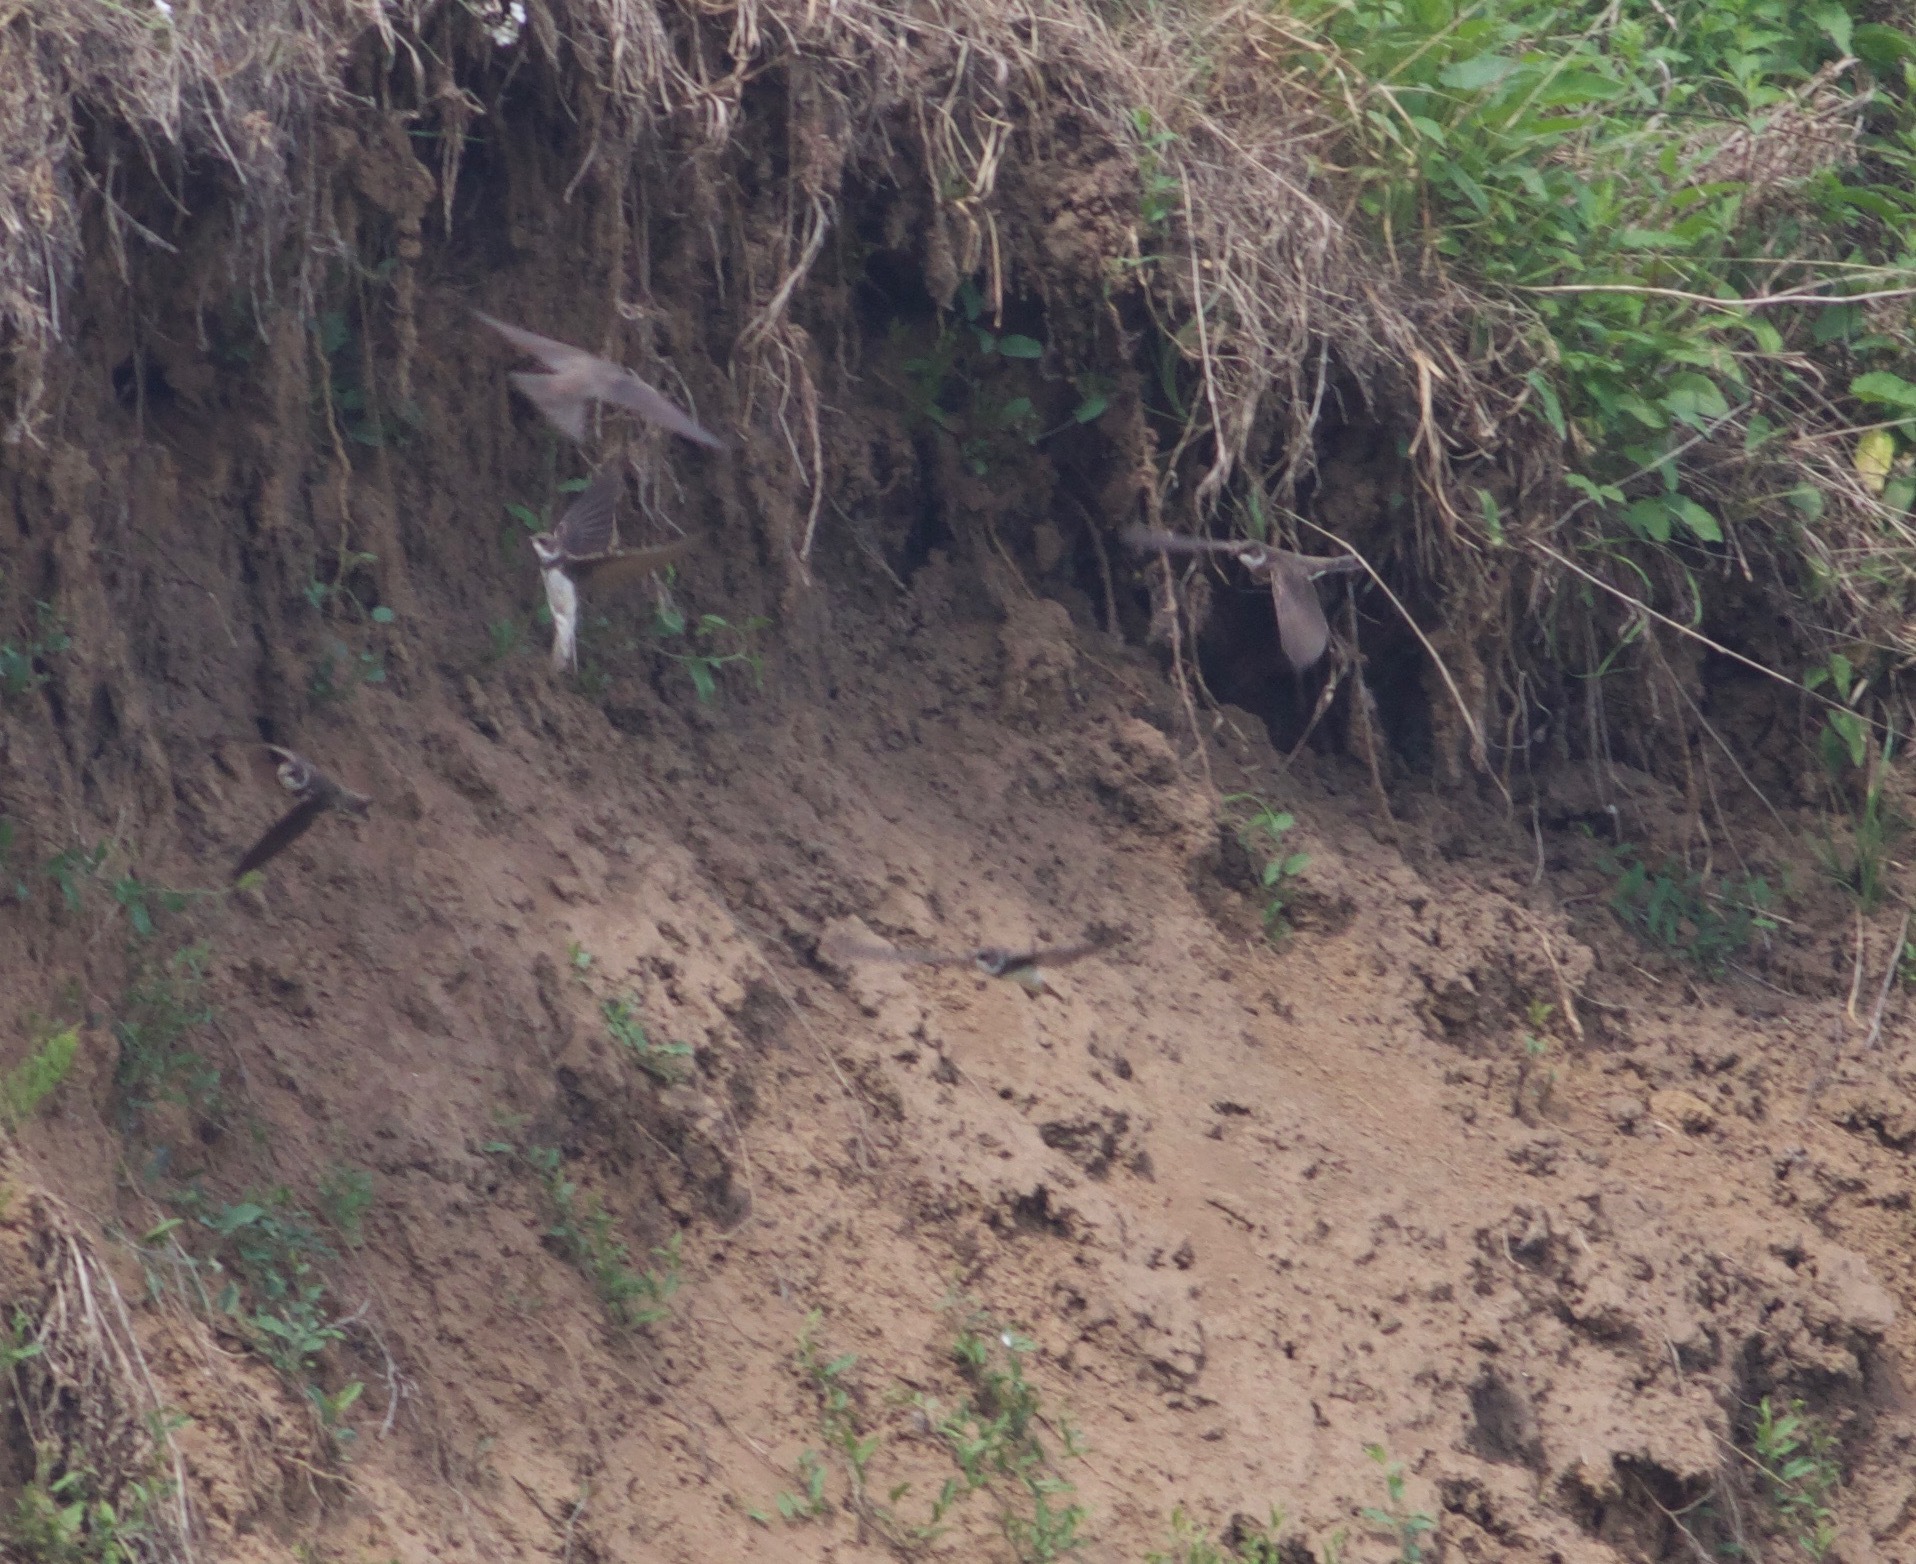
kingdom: Animalia
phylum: Chordata
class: Aves
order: Passeriformes
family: Hirundinidae
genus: Riparia
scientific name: Riparia riparia
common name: Sand martin
